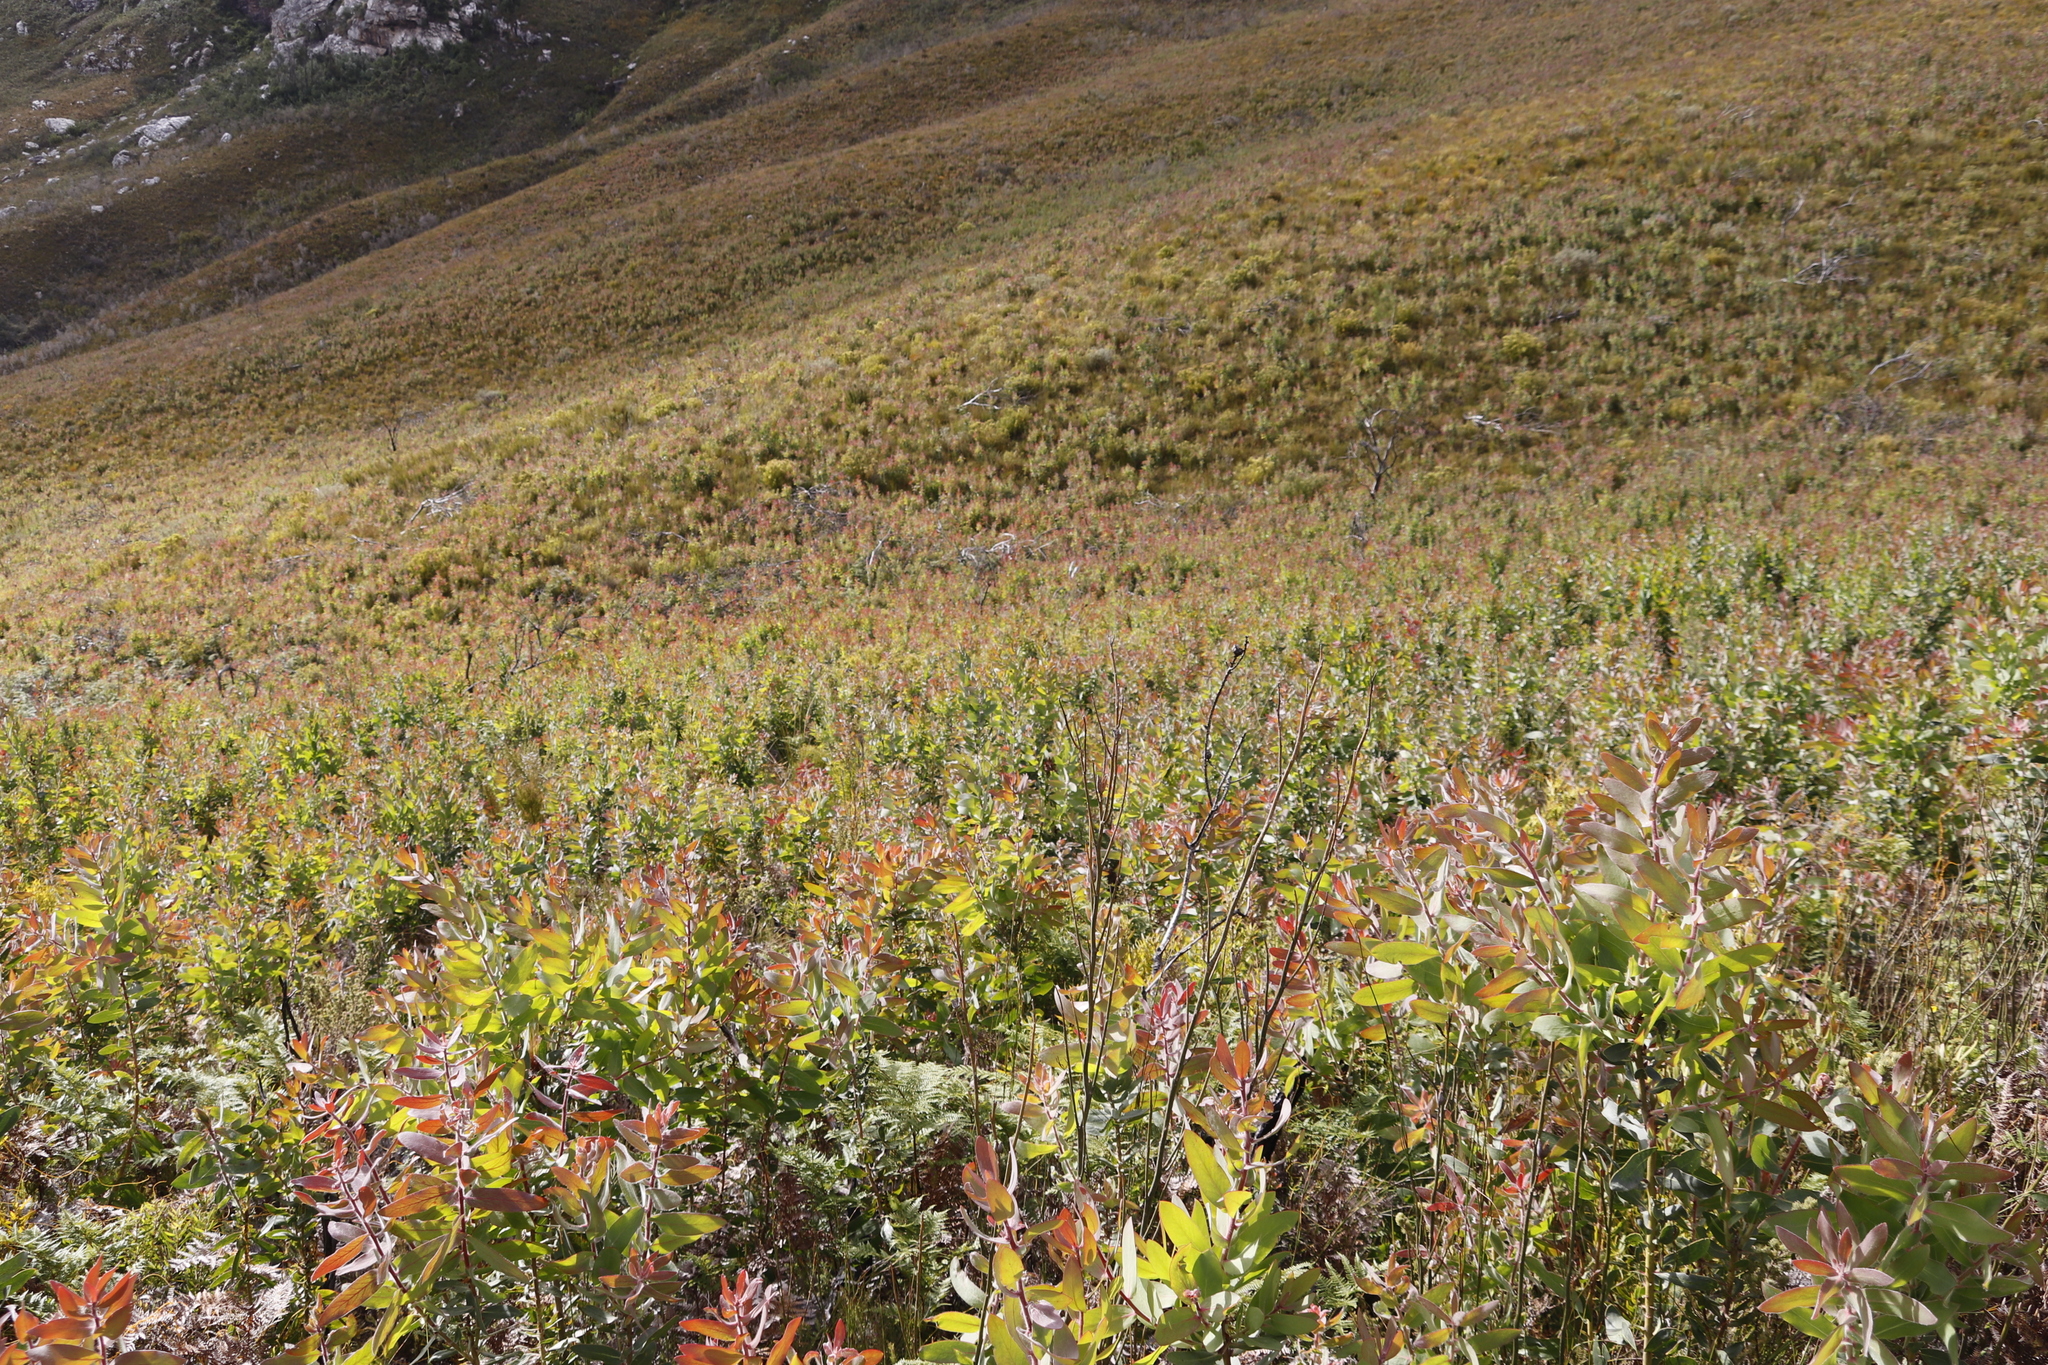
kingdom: Plantae
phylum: Tracheophyta
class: Magnoliopsida
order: Asterales
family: Asteraceae
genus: Othonna
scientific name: Othonna quinquedentata
